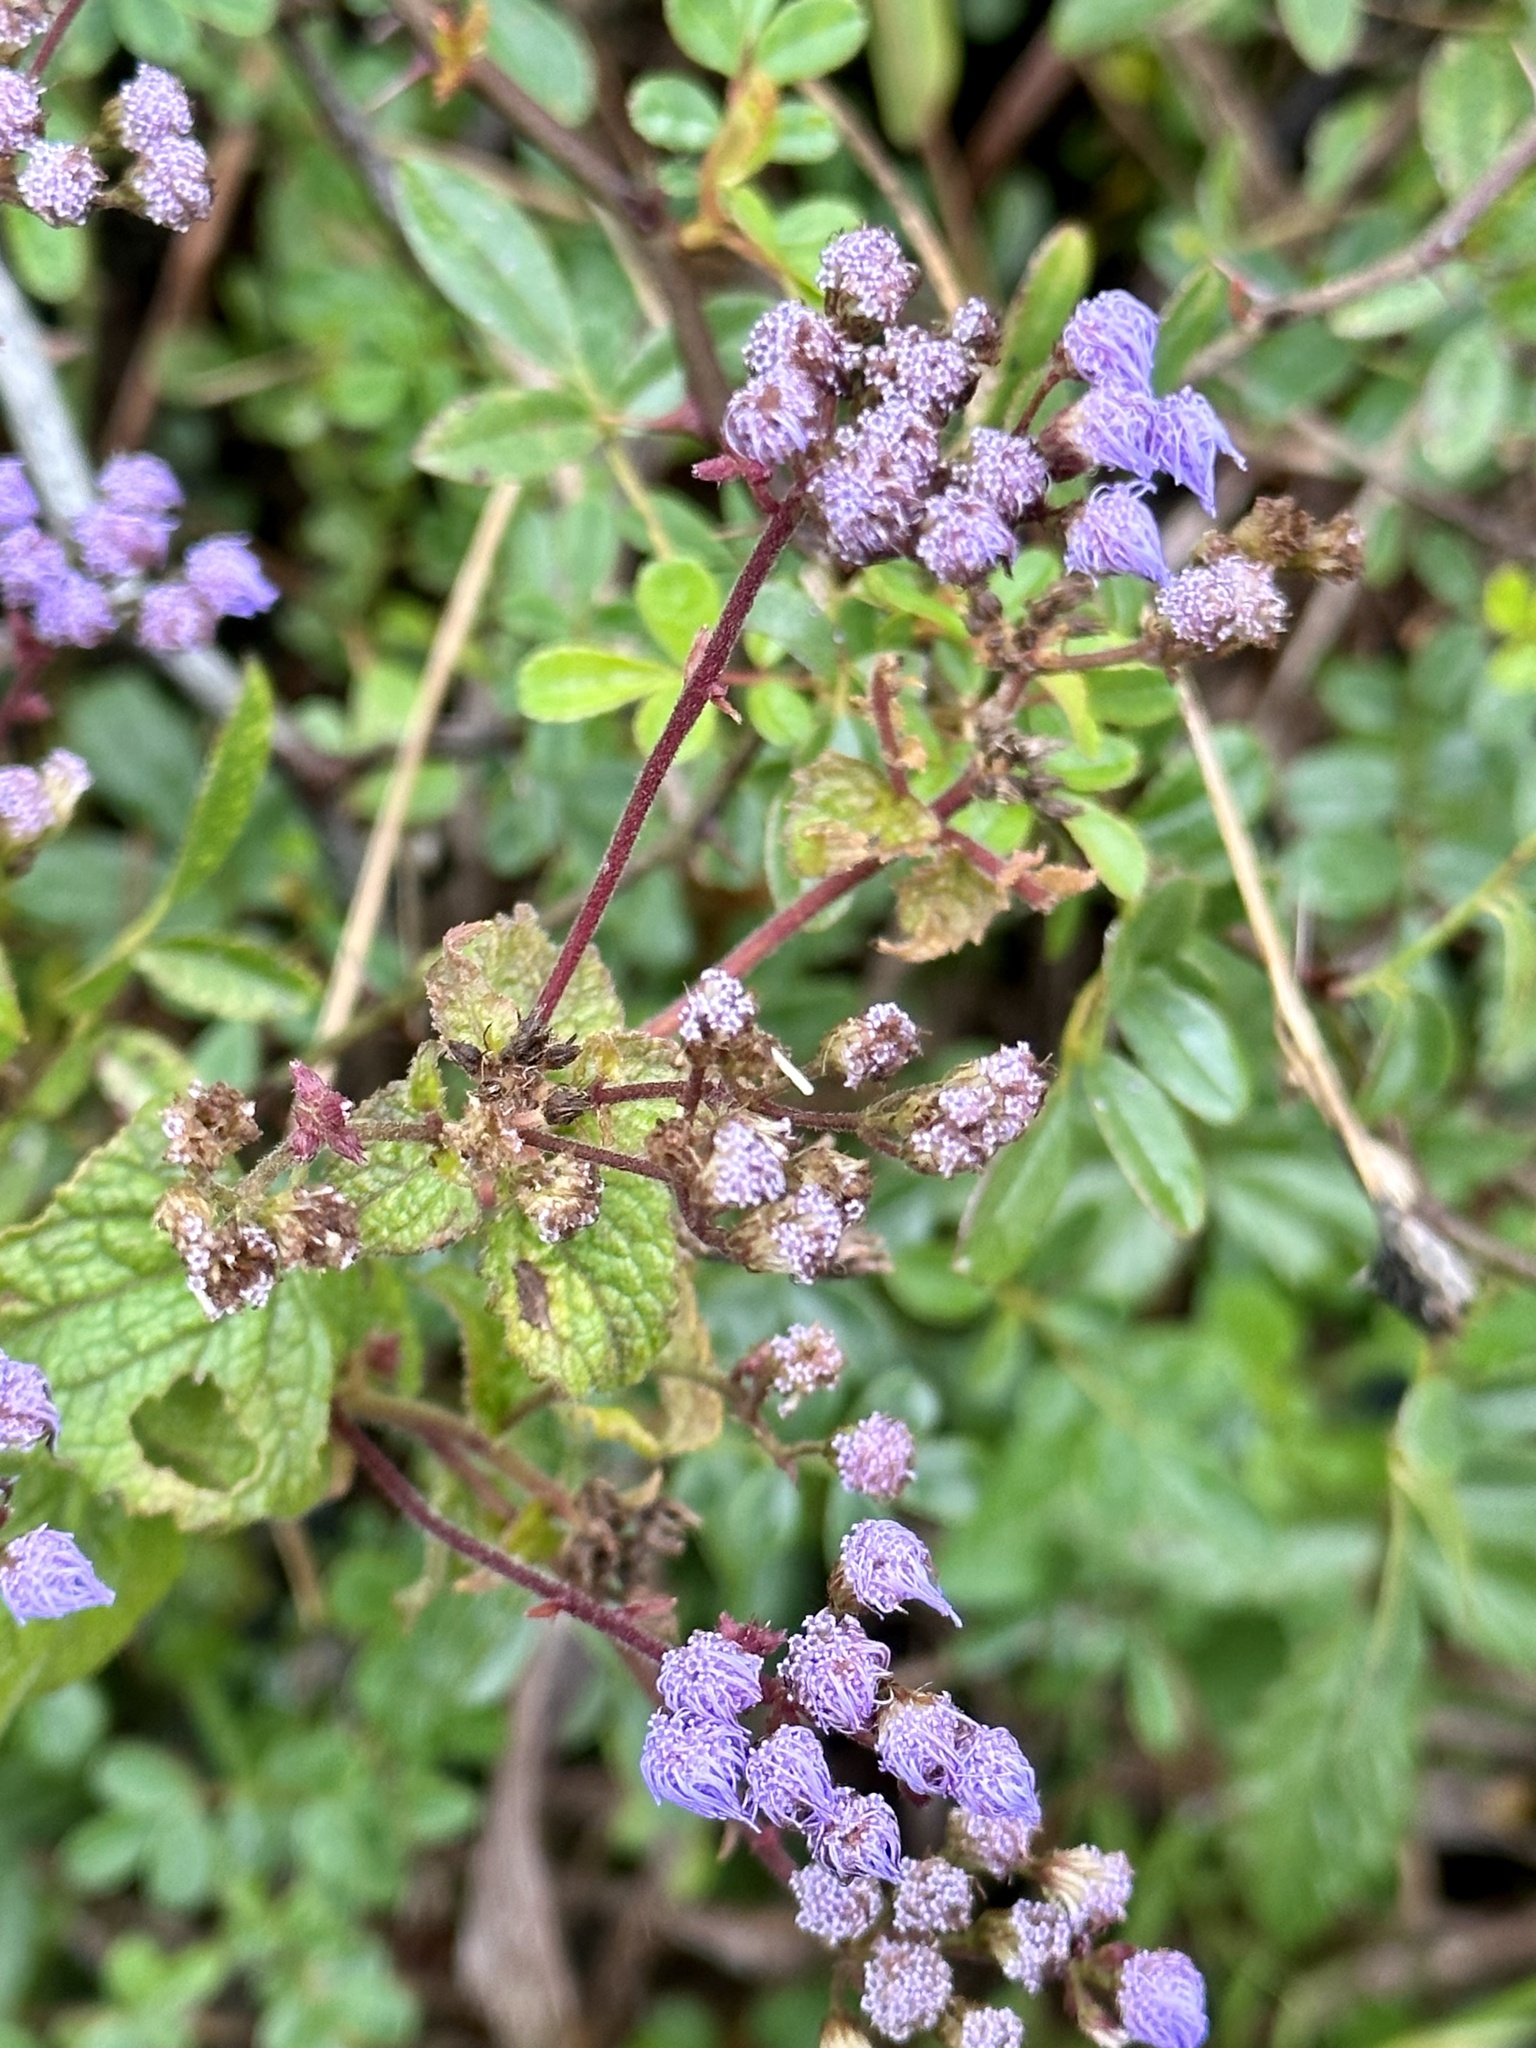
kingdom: Plantae
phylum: Tracheophyta
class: Magnoliopsida
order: Asterales
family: Asteraceae
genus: Conoclinium
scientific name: Conoclinium coelestinum
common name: Blue mistflower
